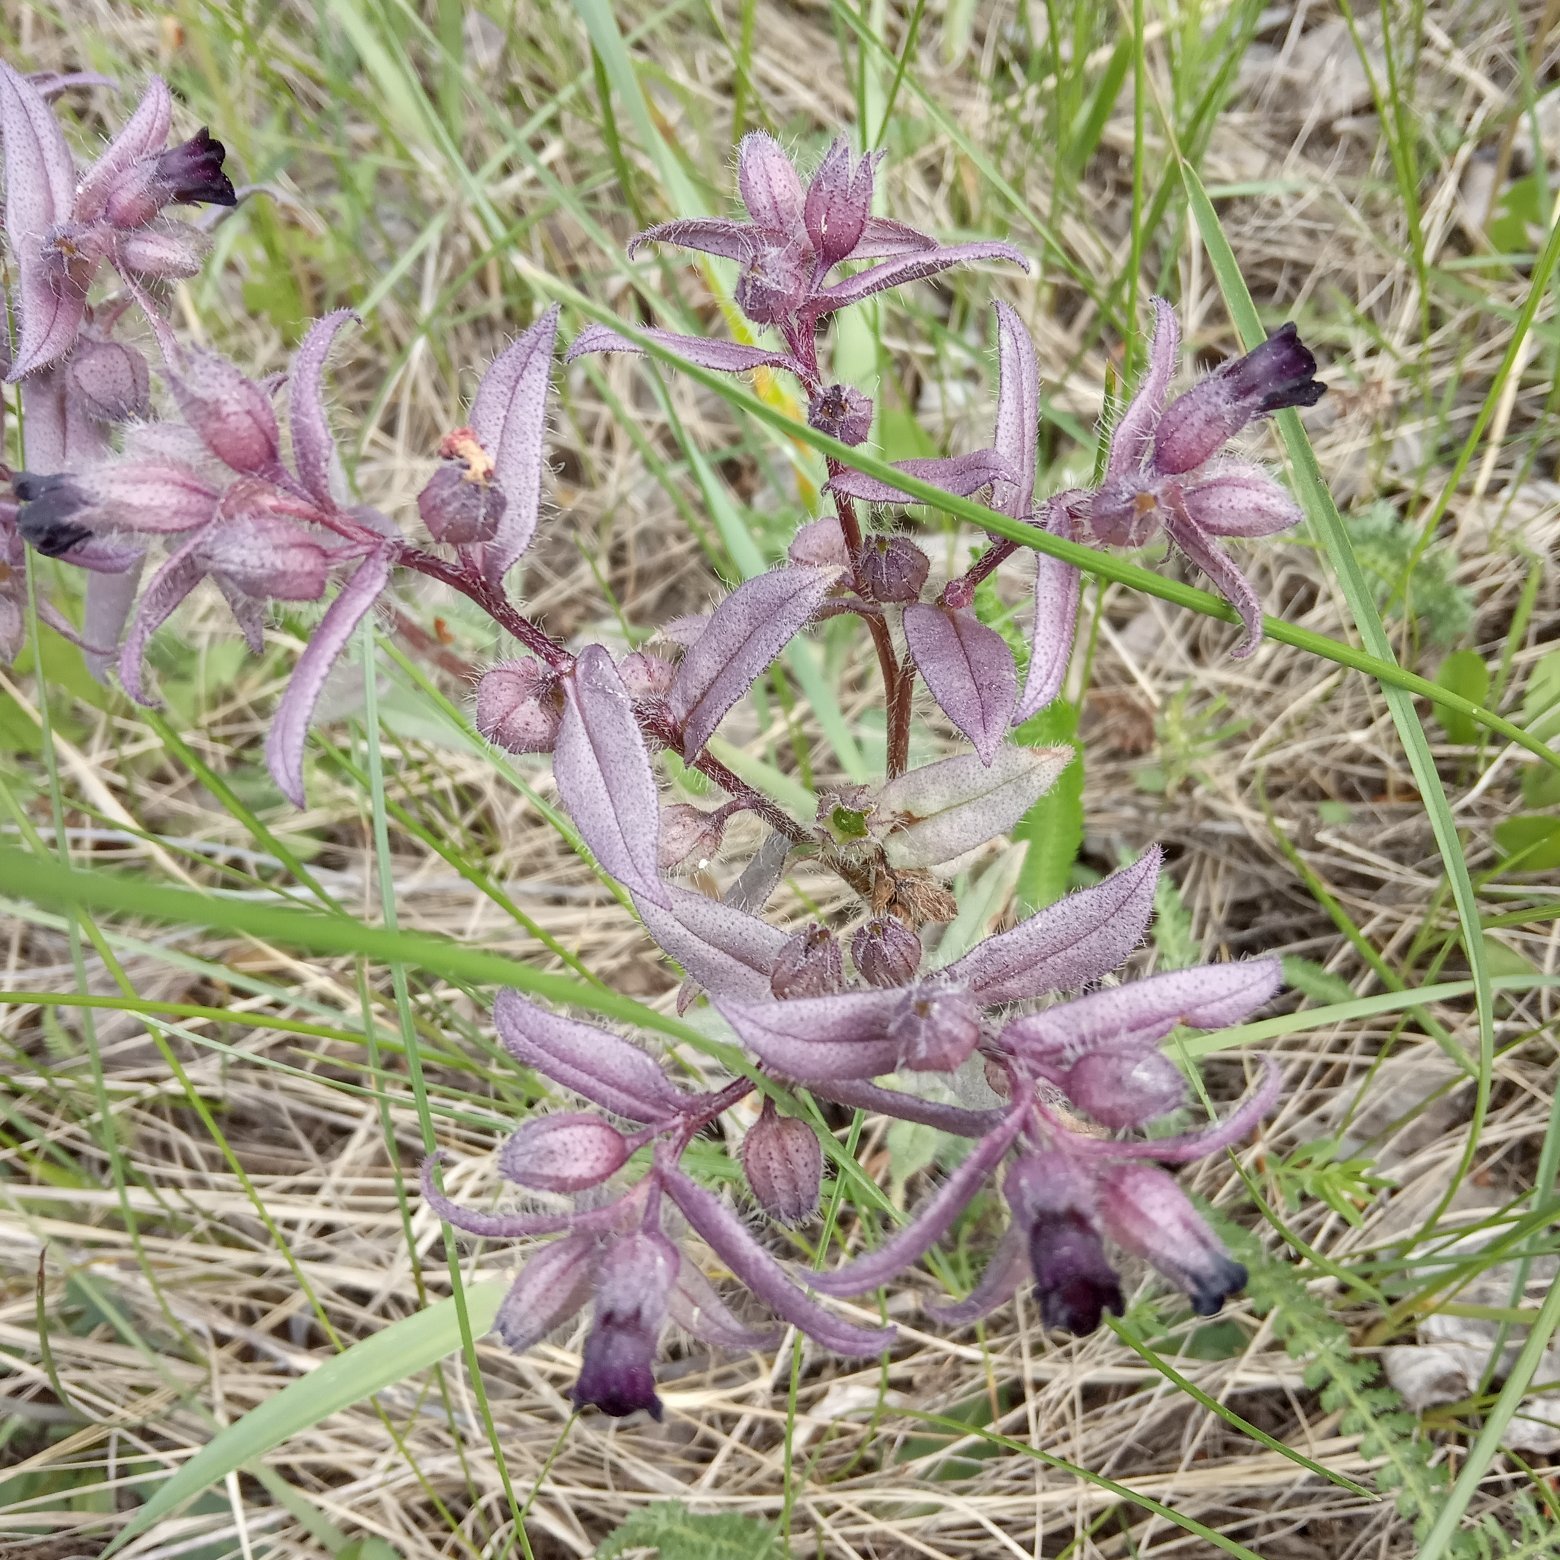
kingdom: Plantae
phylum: Tracheophyta
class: Magnoliopsida
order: Boraginales
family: Boraginaceae
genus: Nonea
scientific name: Nonea pulla
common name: Brown nonea
